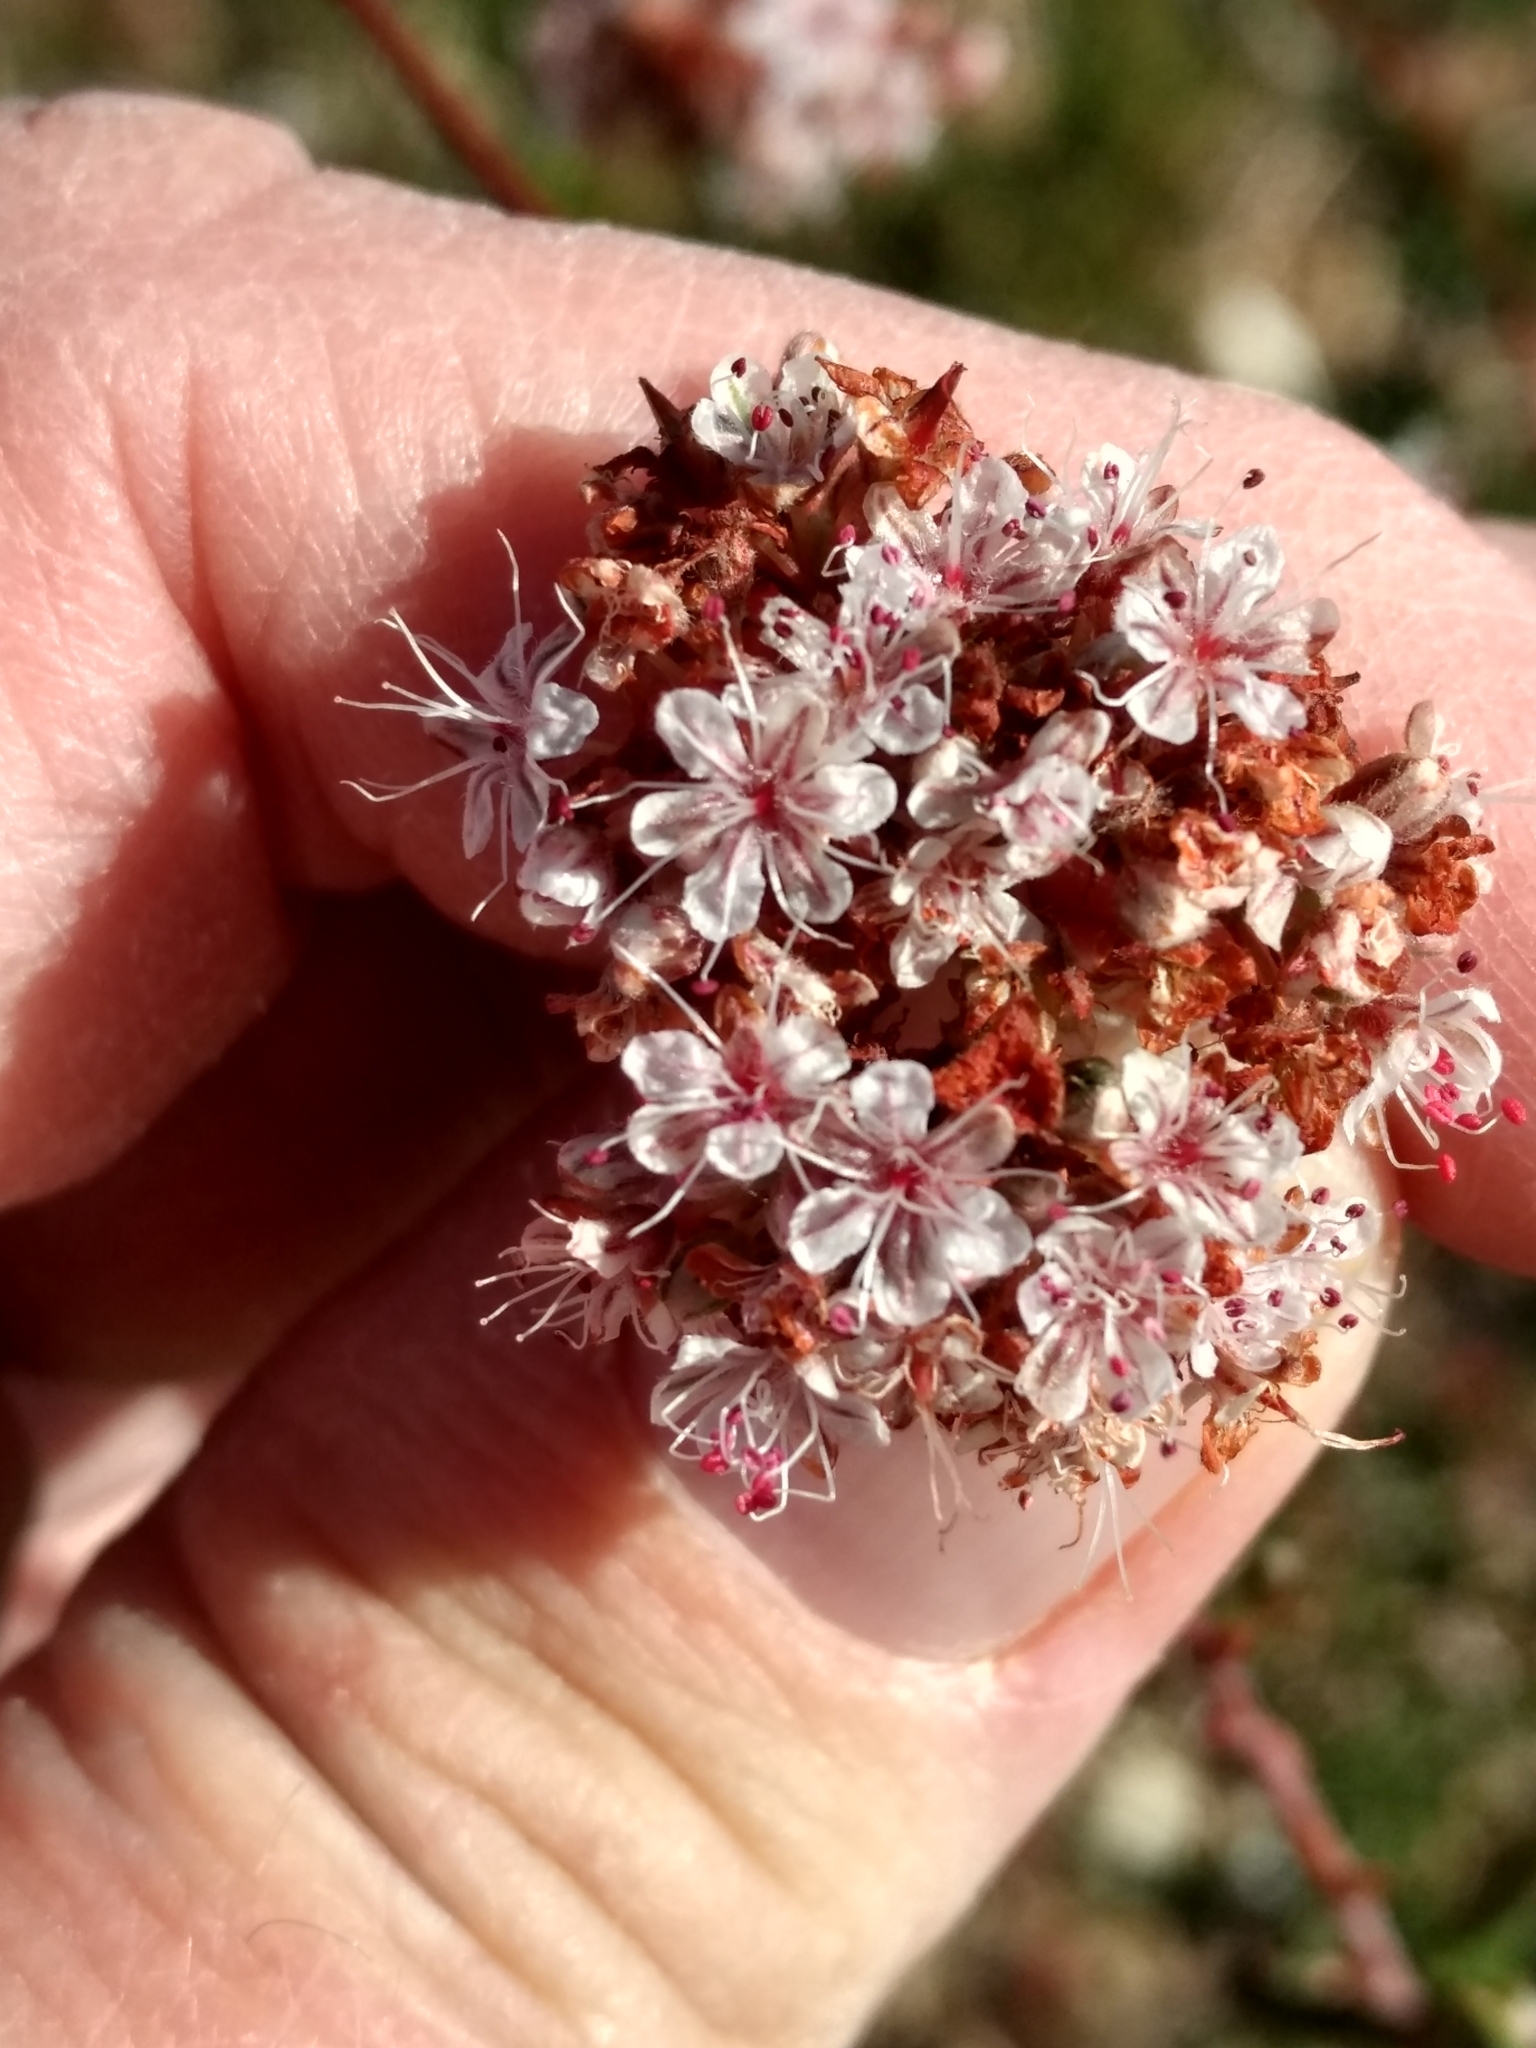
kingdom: Plantae
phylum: Tracheophyta
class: Magnoliopsida
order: Caryophyllales
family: Polygonaceae
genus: Eriogonum
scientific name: Eriogonum fasciculatum
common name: California wild buckwheat
